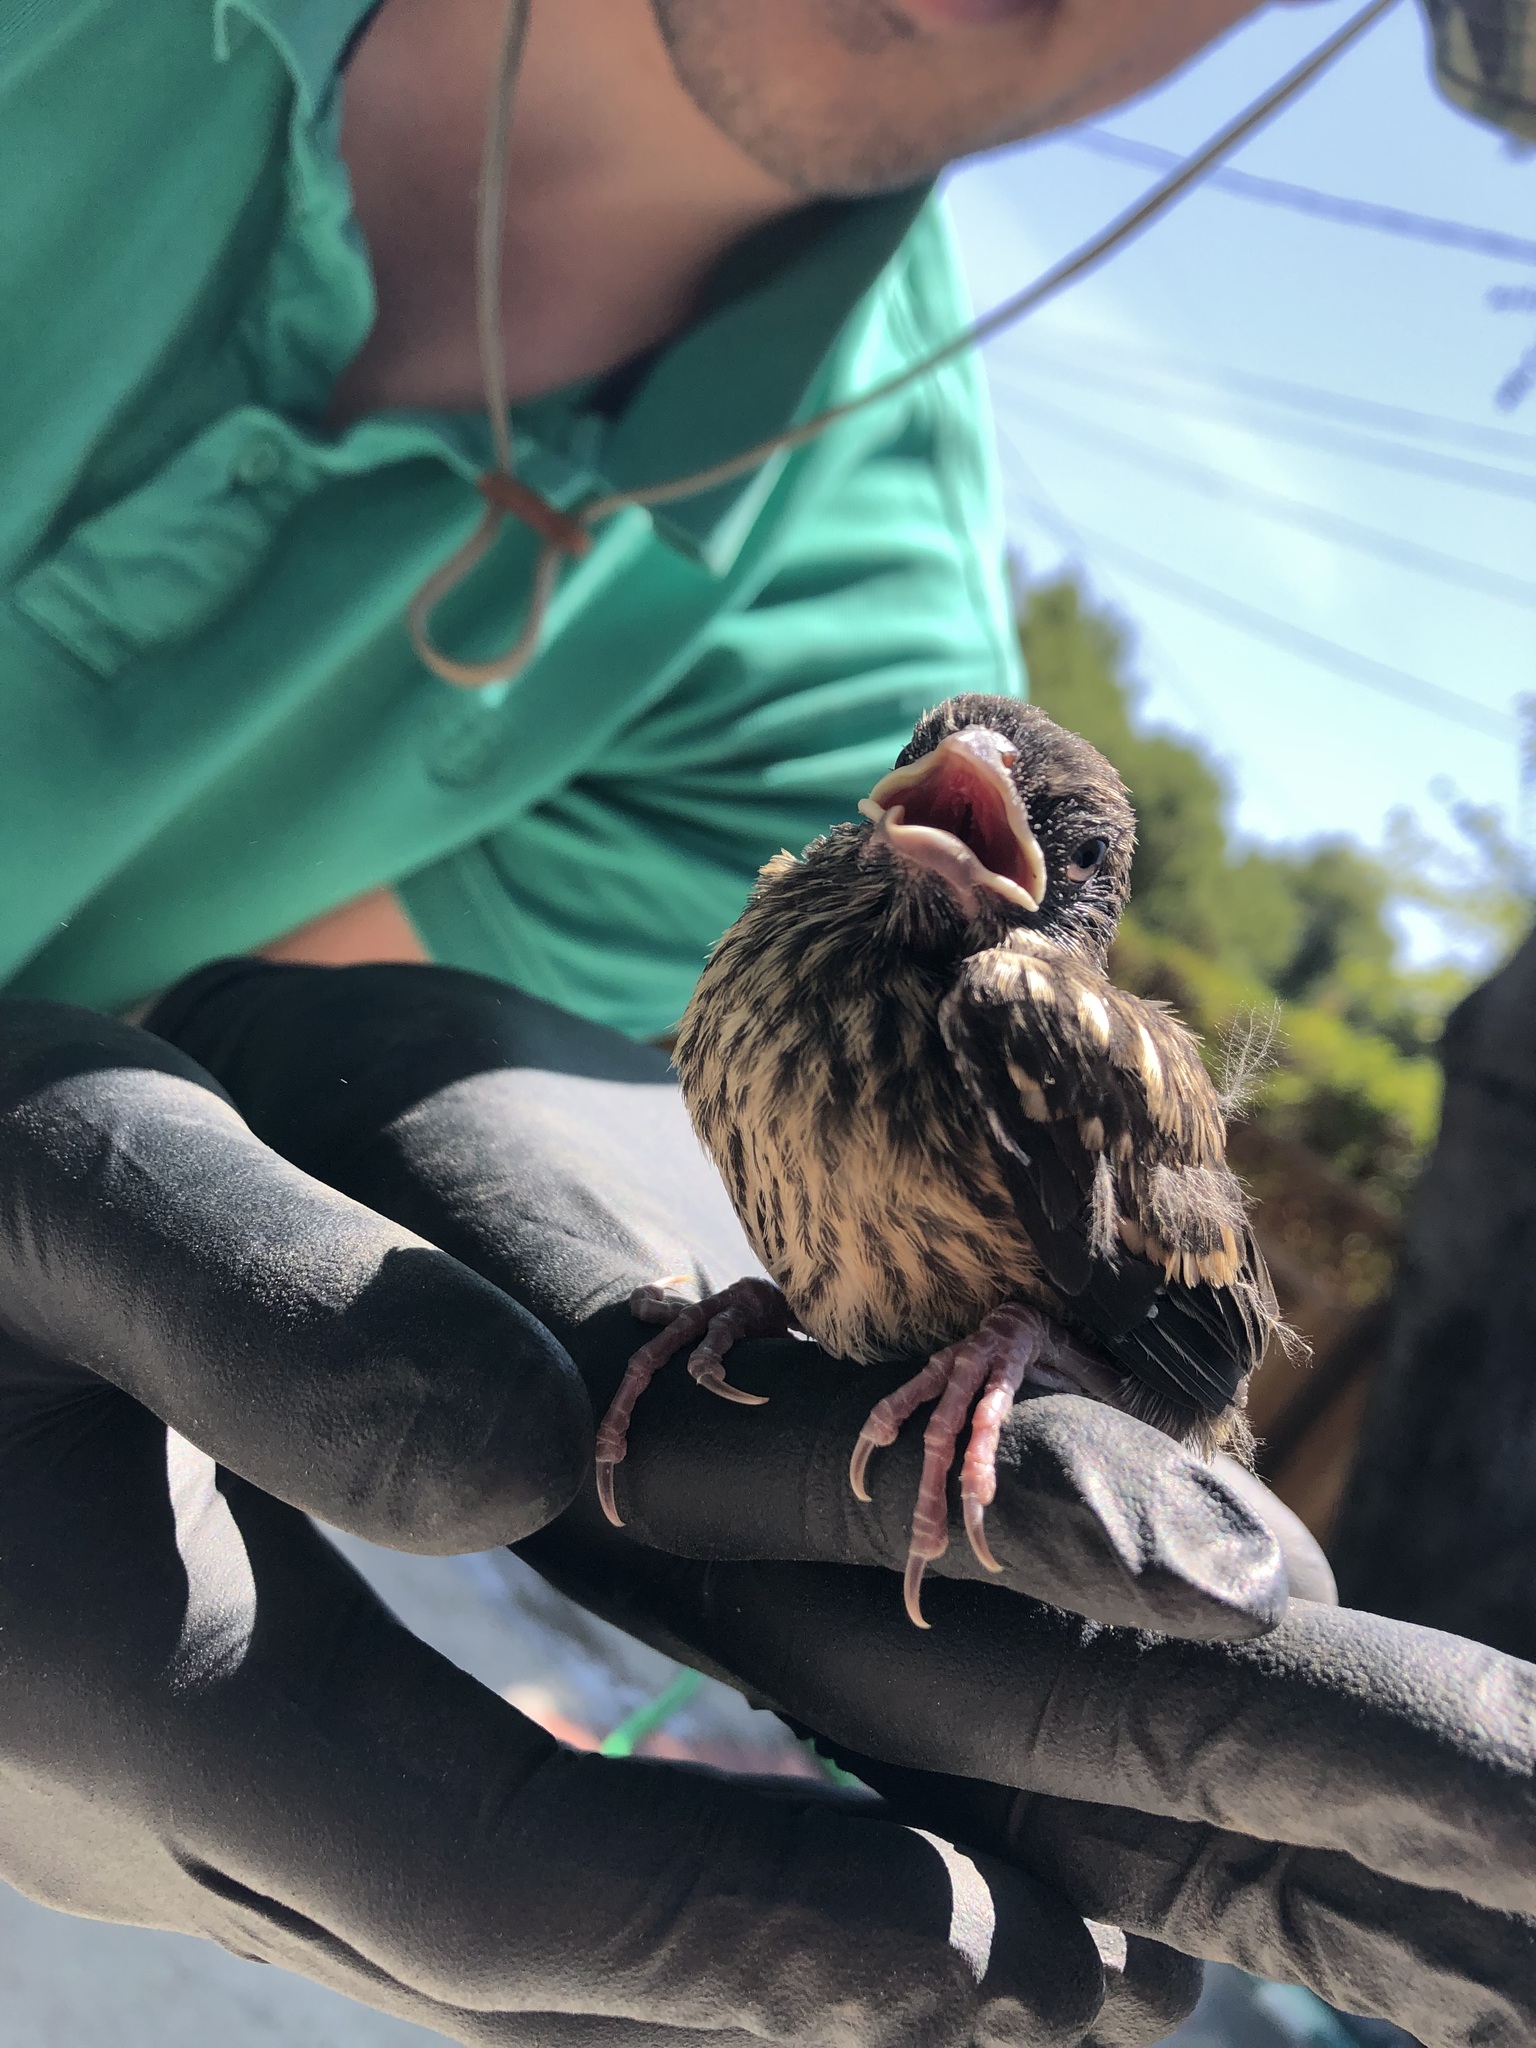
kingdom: Animalia
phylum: Chordata
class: Aves
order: Passeriformes
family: Passerellidae
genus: Pipilo
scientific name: Pipilo maculatus
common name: Spotted towhee
